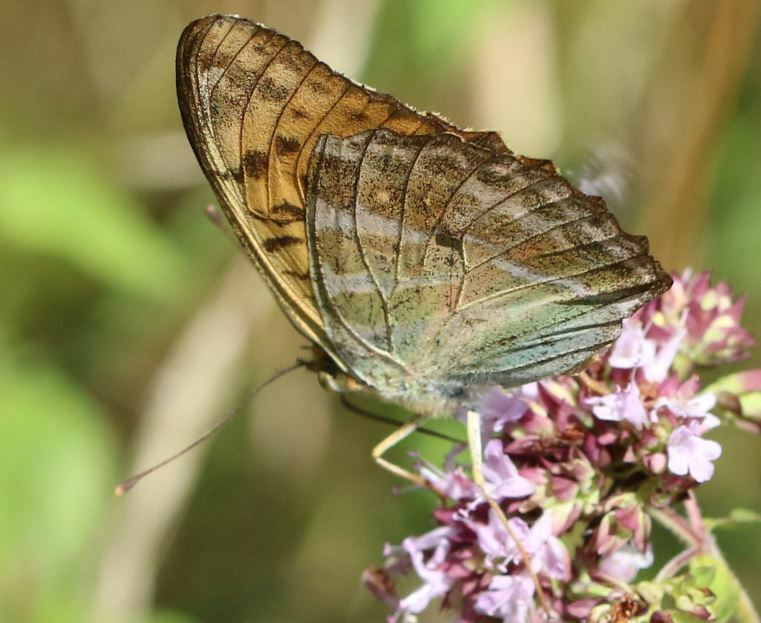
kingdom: Animalia
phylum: Arthropoda
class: Insecta
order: Lepidoptera
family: Nymphalidae
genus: Argynnis
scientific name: Argynnis paphia
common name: Silver-washed fritillary
